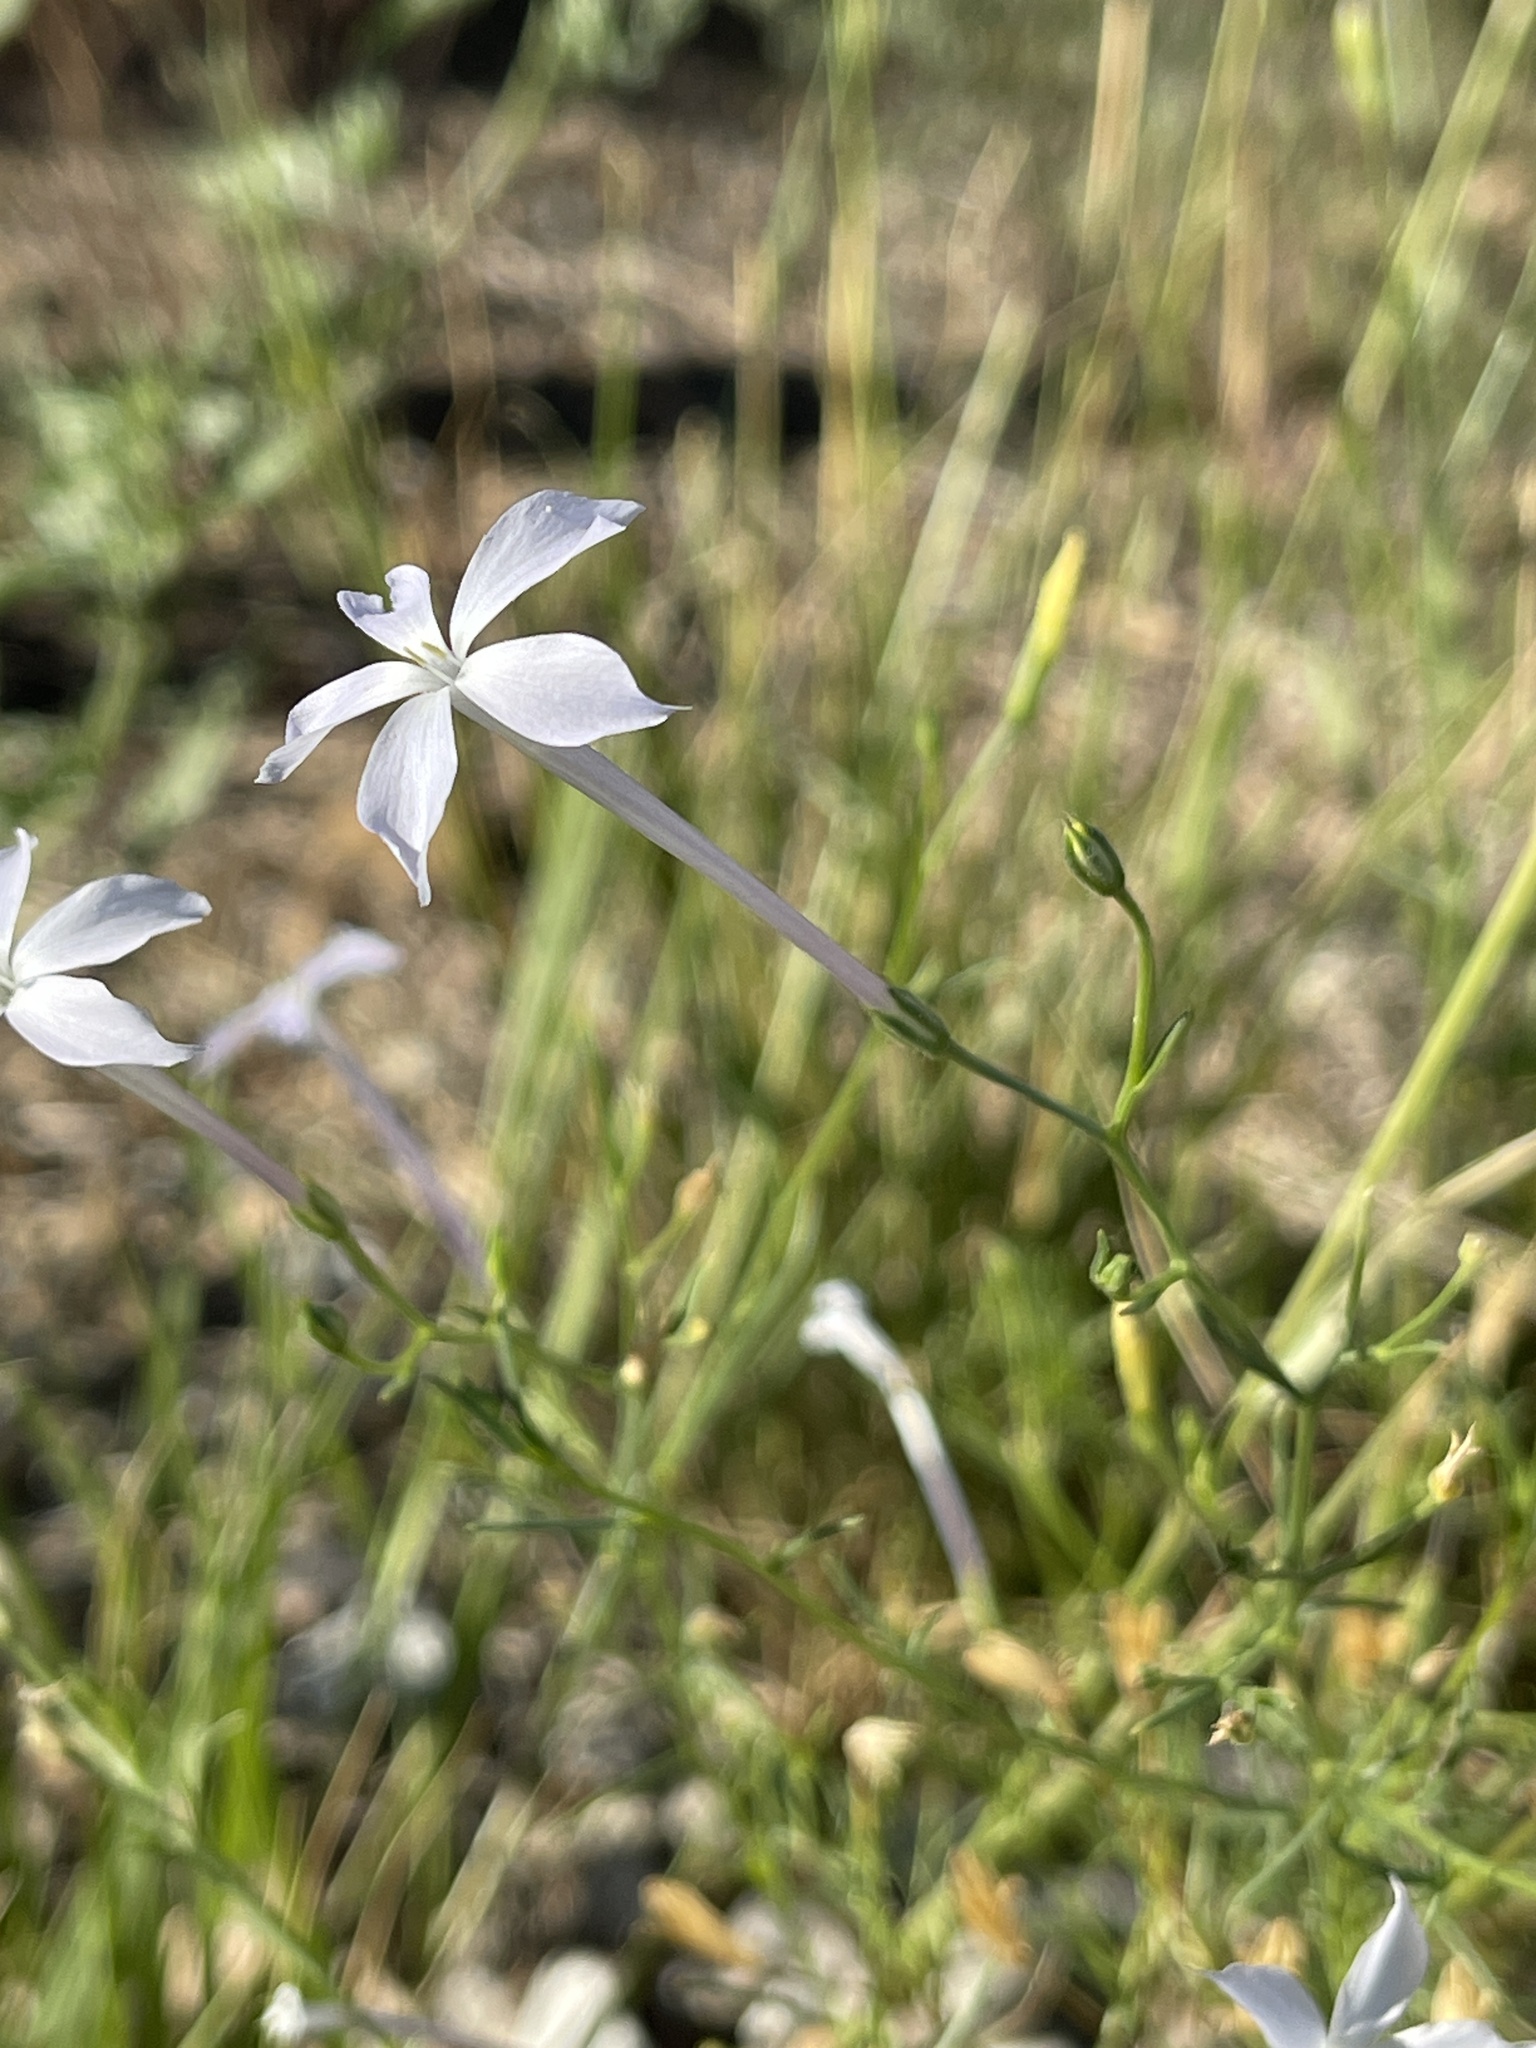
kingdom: Plantae
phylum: Tracheophyta
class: Magnoliopsida
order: Ericales
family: Polemoniaceae
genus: Ipomopsis
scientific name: Ipomopsis longiflora
